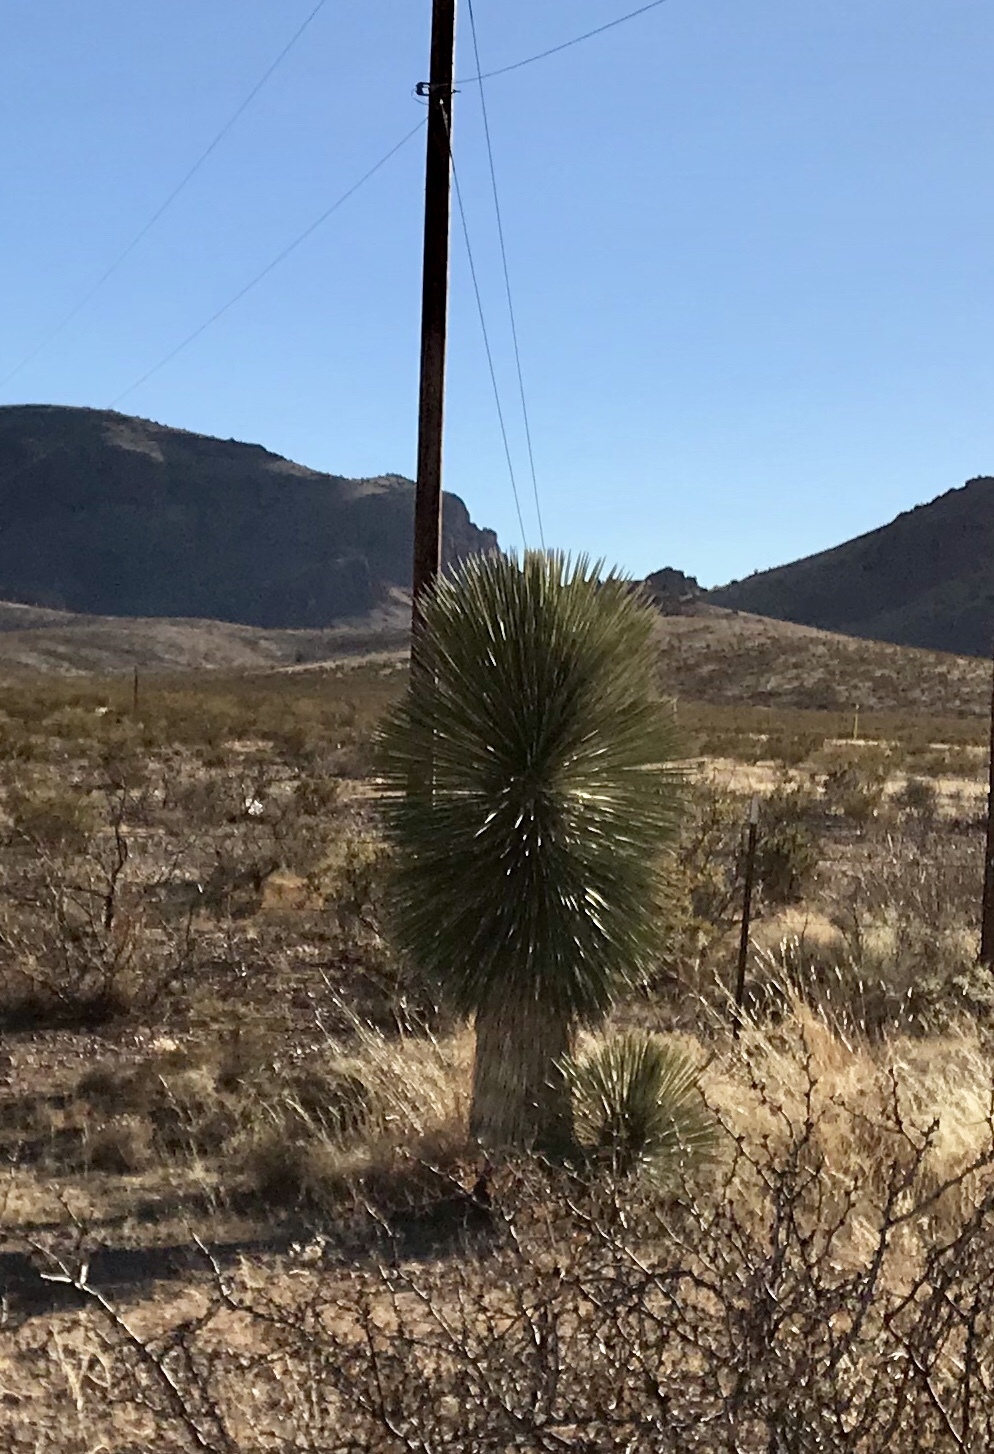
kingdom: Plantae
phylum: Tracheophyta
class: Liliopsida
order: Asparagales
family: Asparagaceae
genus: Yucca
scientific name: Yucca elata
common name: Palmella
